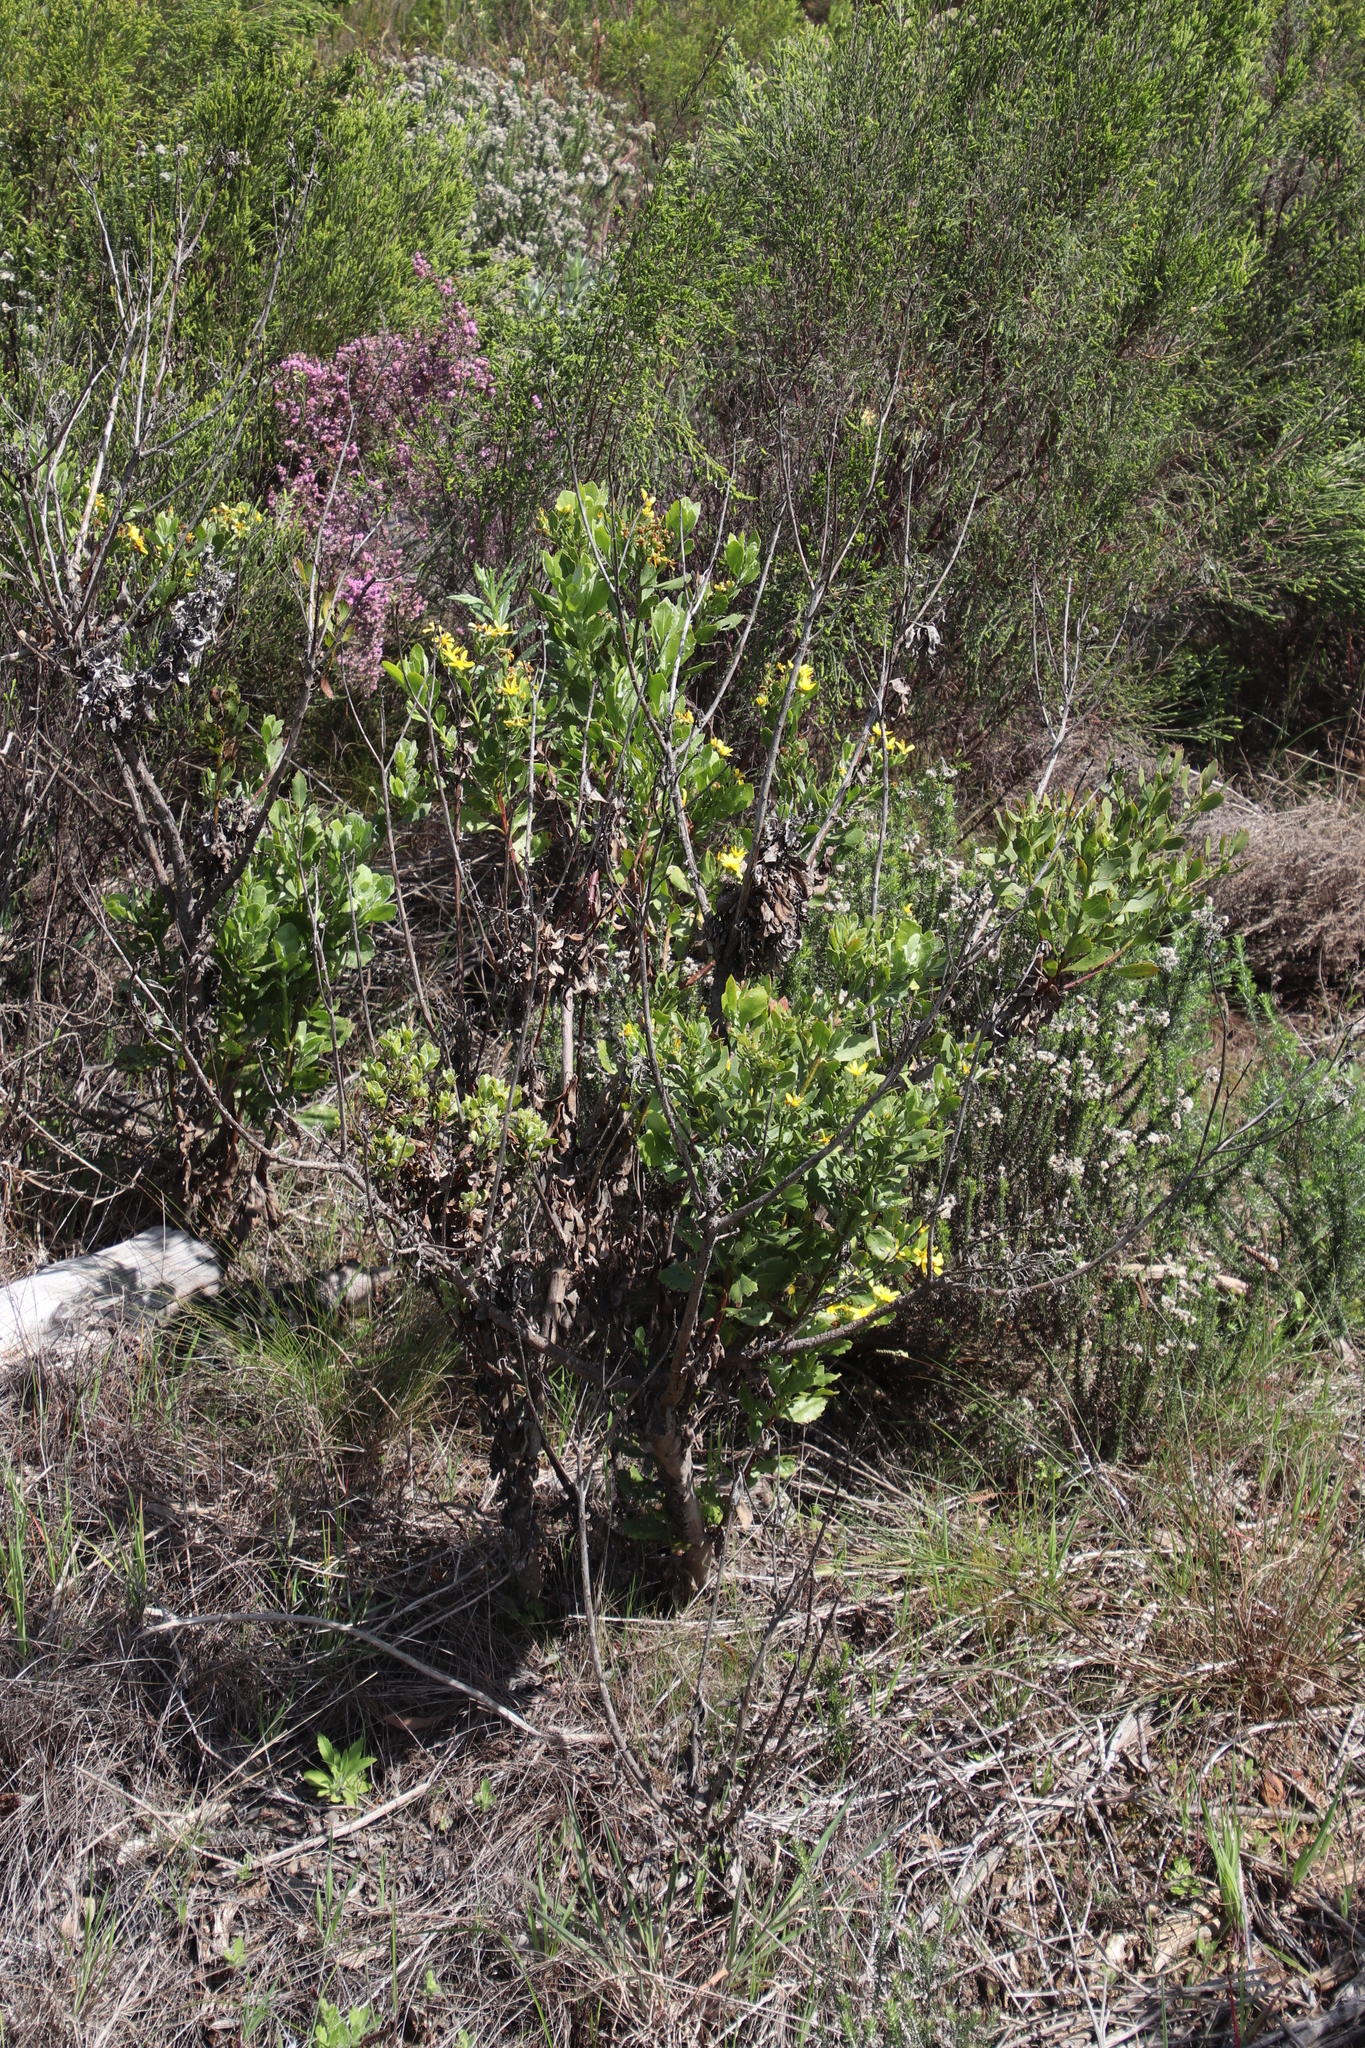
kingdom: Plantae
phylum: Tracheophyta
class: Magnoliopsida
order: Asterales
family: Asteraceae
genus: Osteospermum
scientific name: Osteospermum moniliferum
